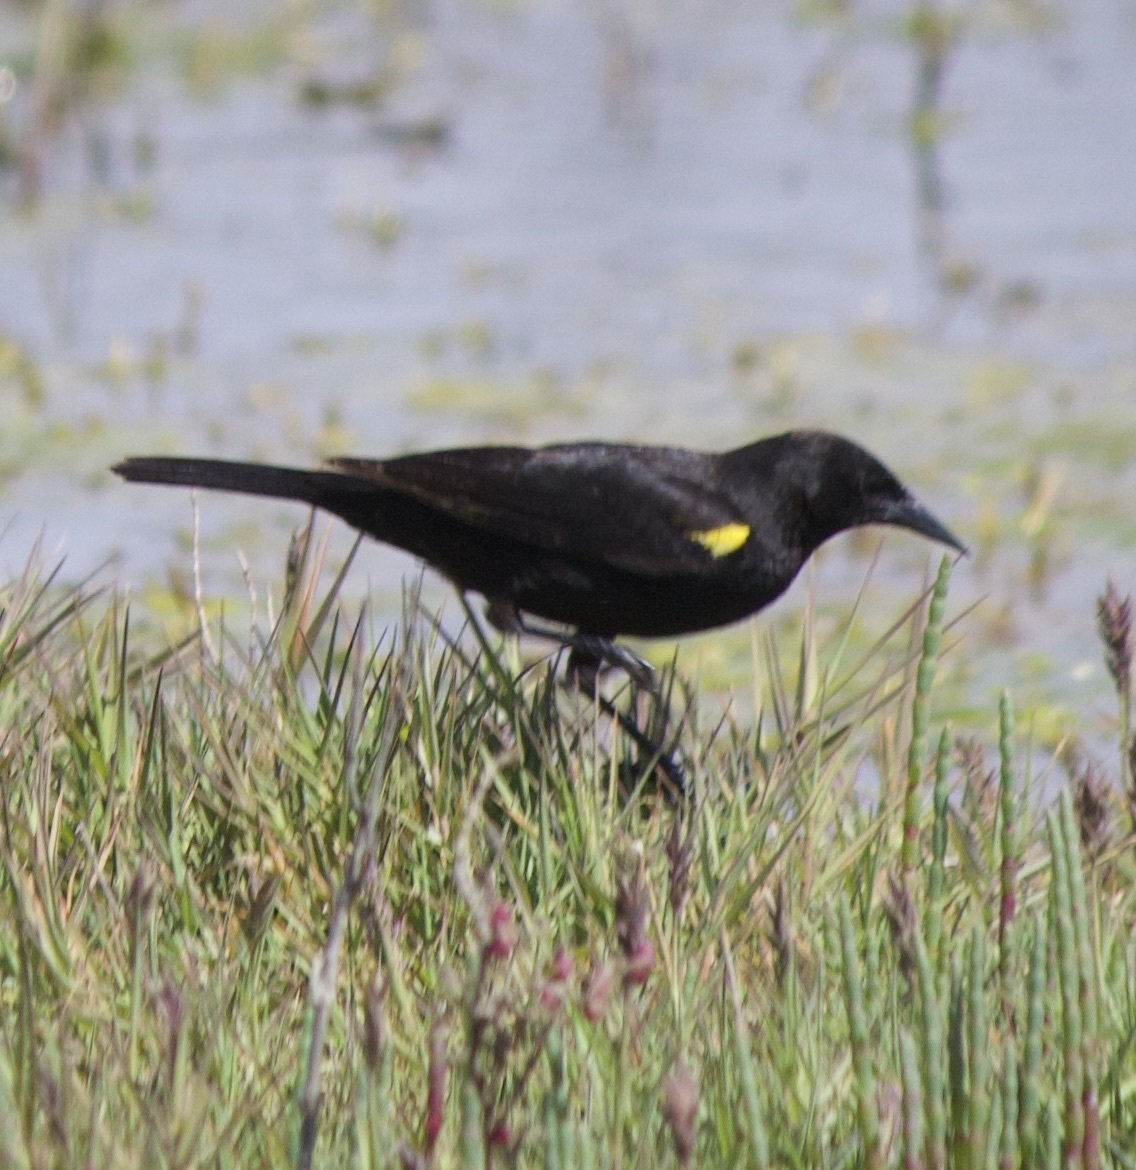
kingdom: Animalia
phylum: Chordata
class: Aves
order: Passeriformes
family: Icteridae
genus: Agelasticus
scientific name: Agelasticus thilius
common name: Yellow-winged blackbird
